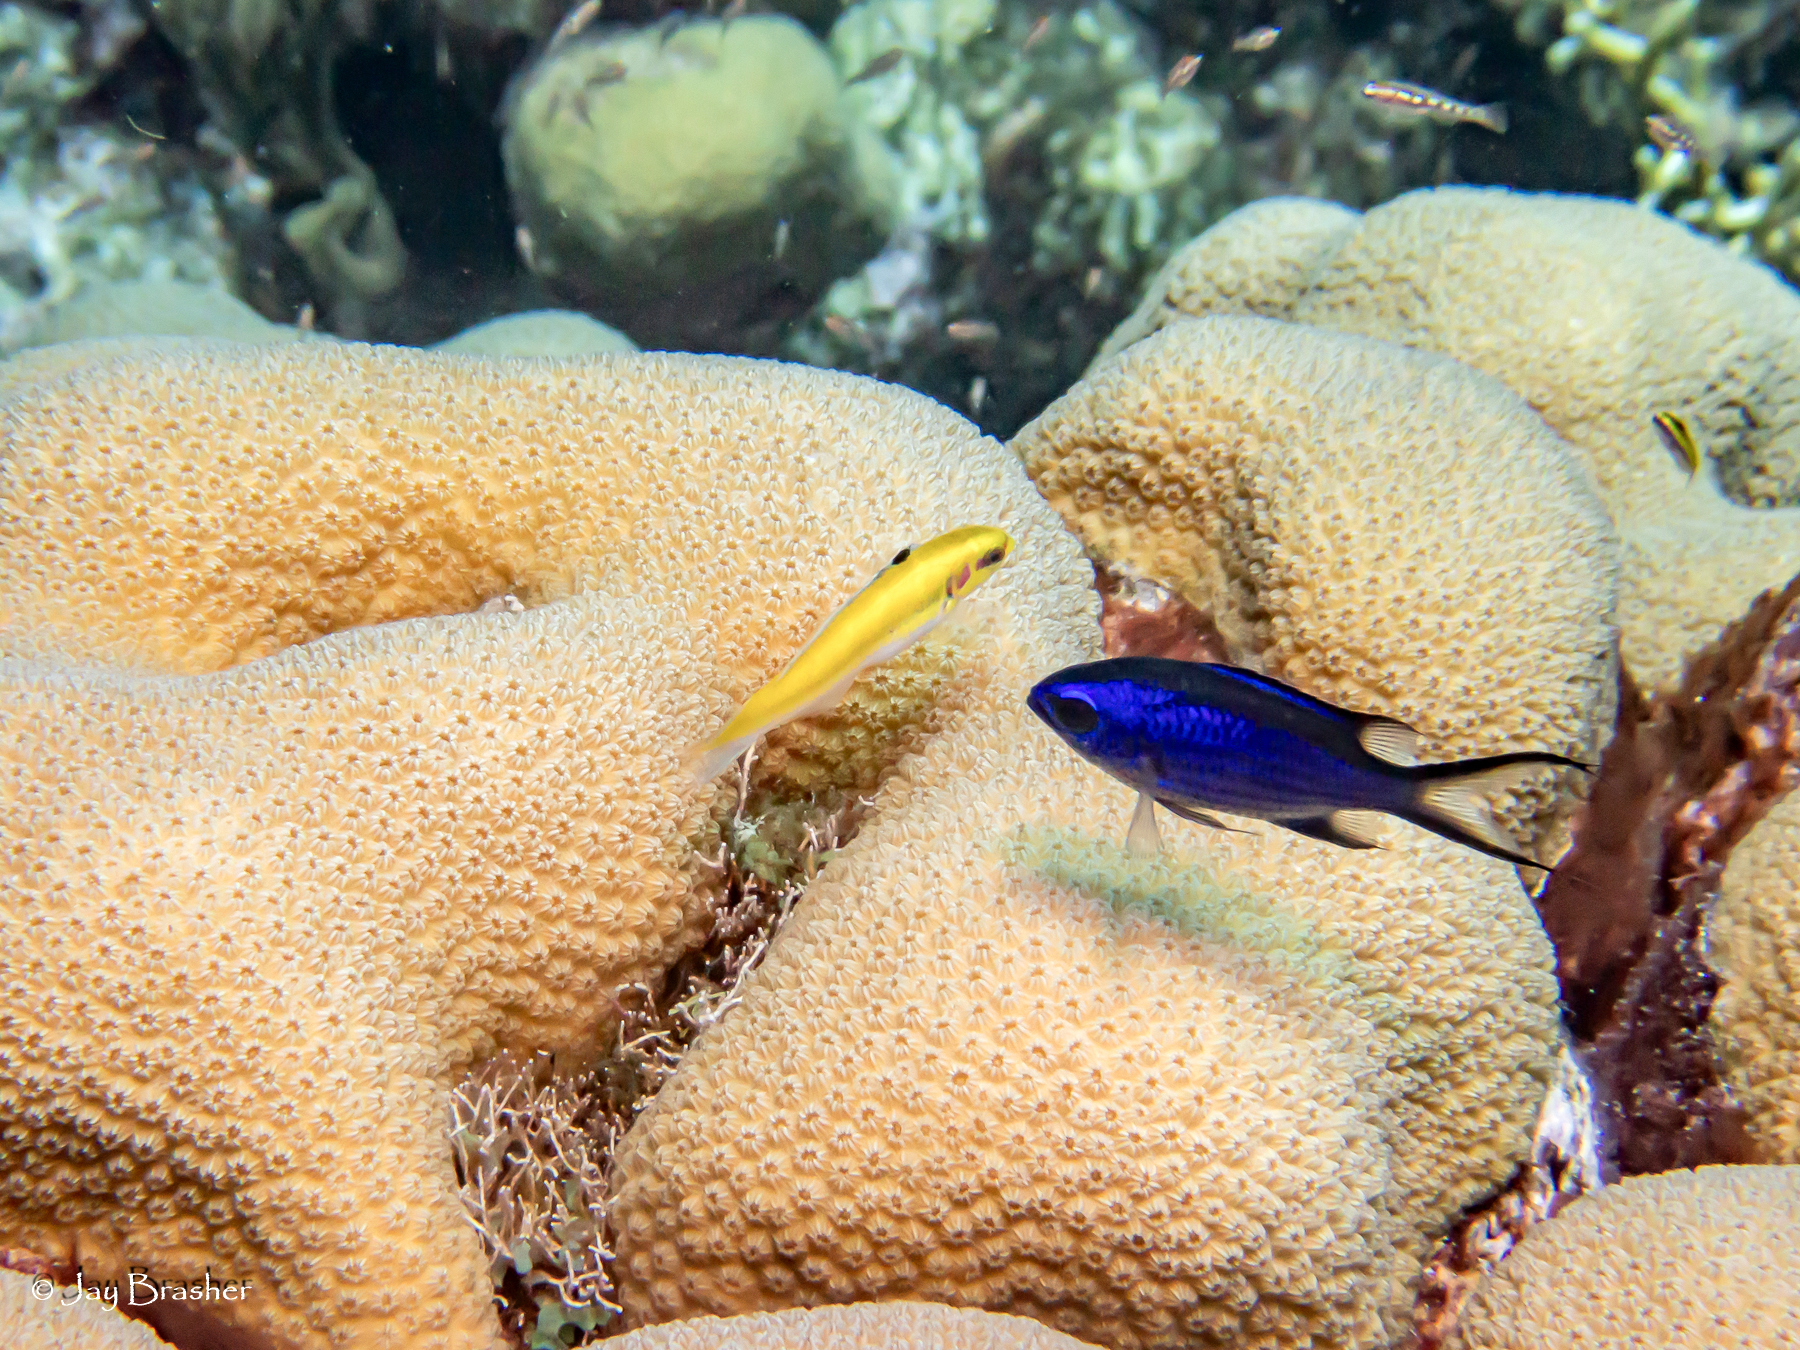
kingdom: Animalia
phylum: Chordata
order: Perciformes
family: Labridae
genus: Thalassoma
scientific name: Thalassoma bifasciatum
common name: Bluehead wrasse
